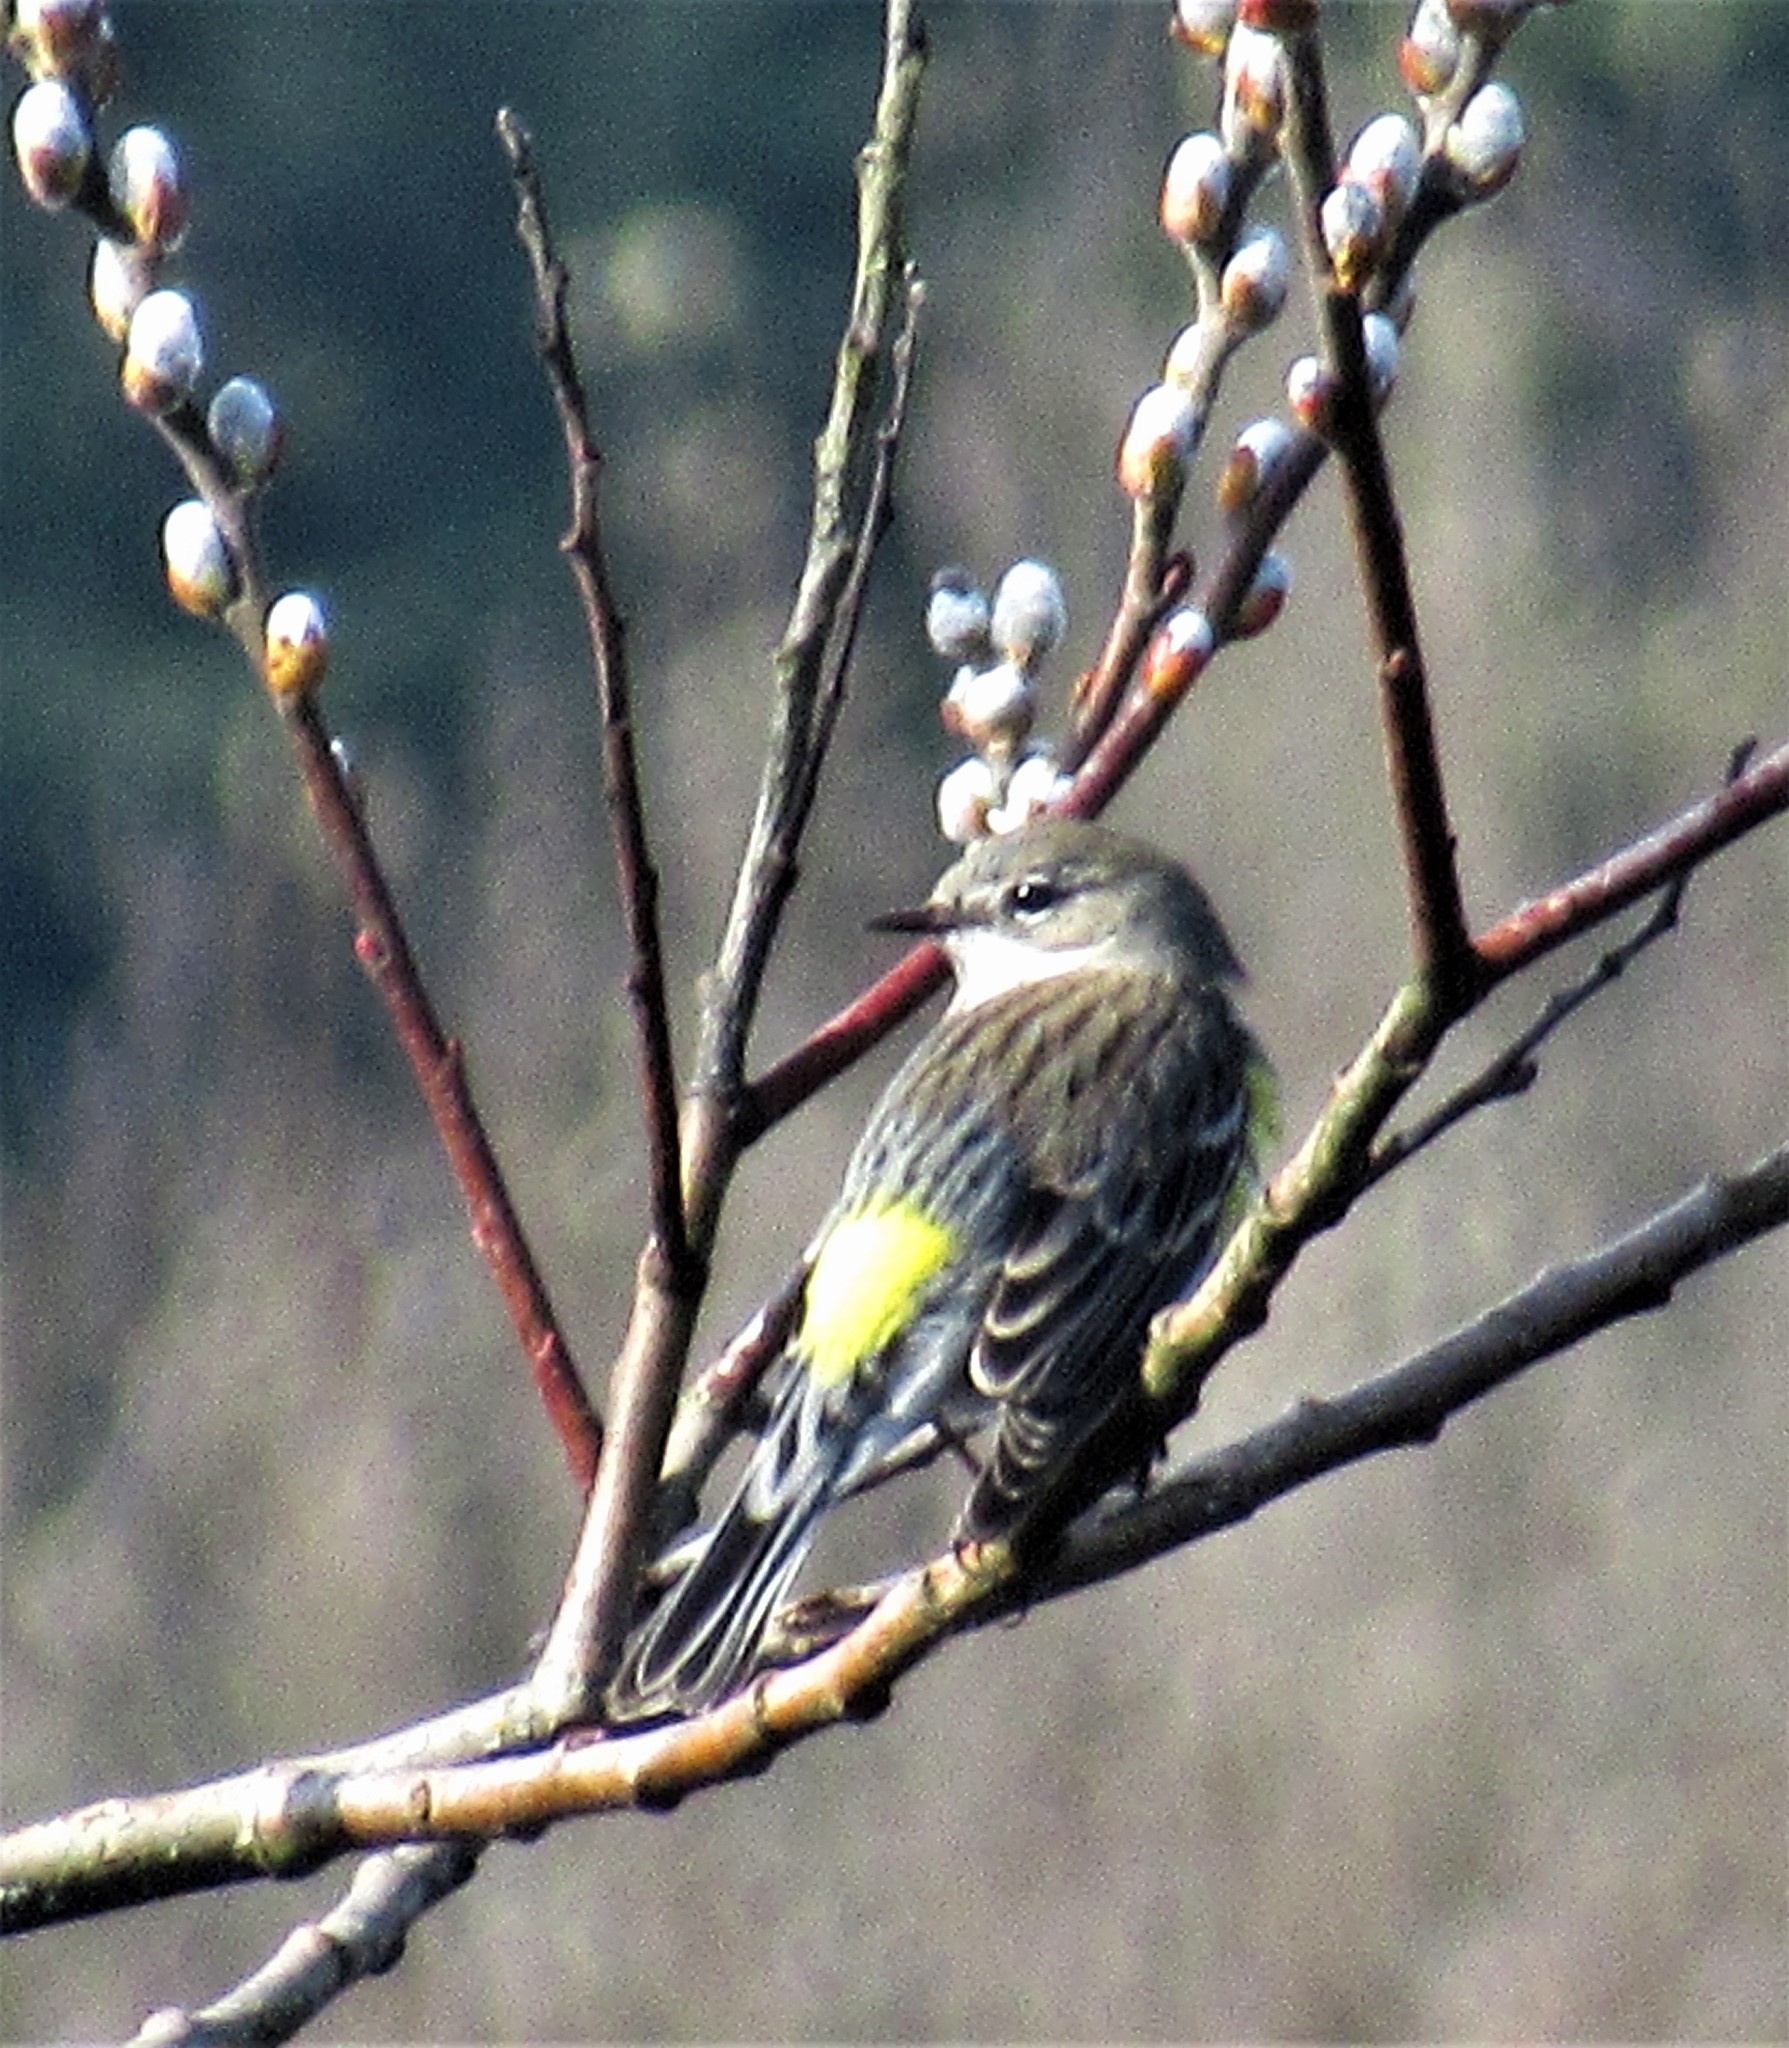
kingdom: Animalia
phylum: Chordata
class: Aves
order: Passeriformes
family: Parulidae
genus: Setophaga
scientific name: Setophaga coronata
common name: Myrtle warbler
